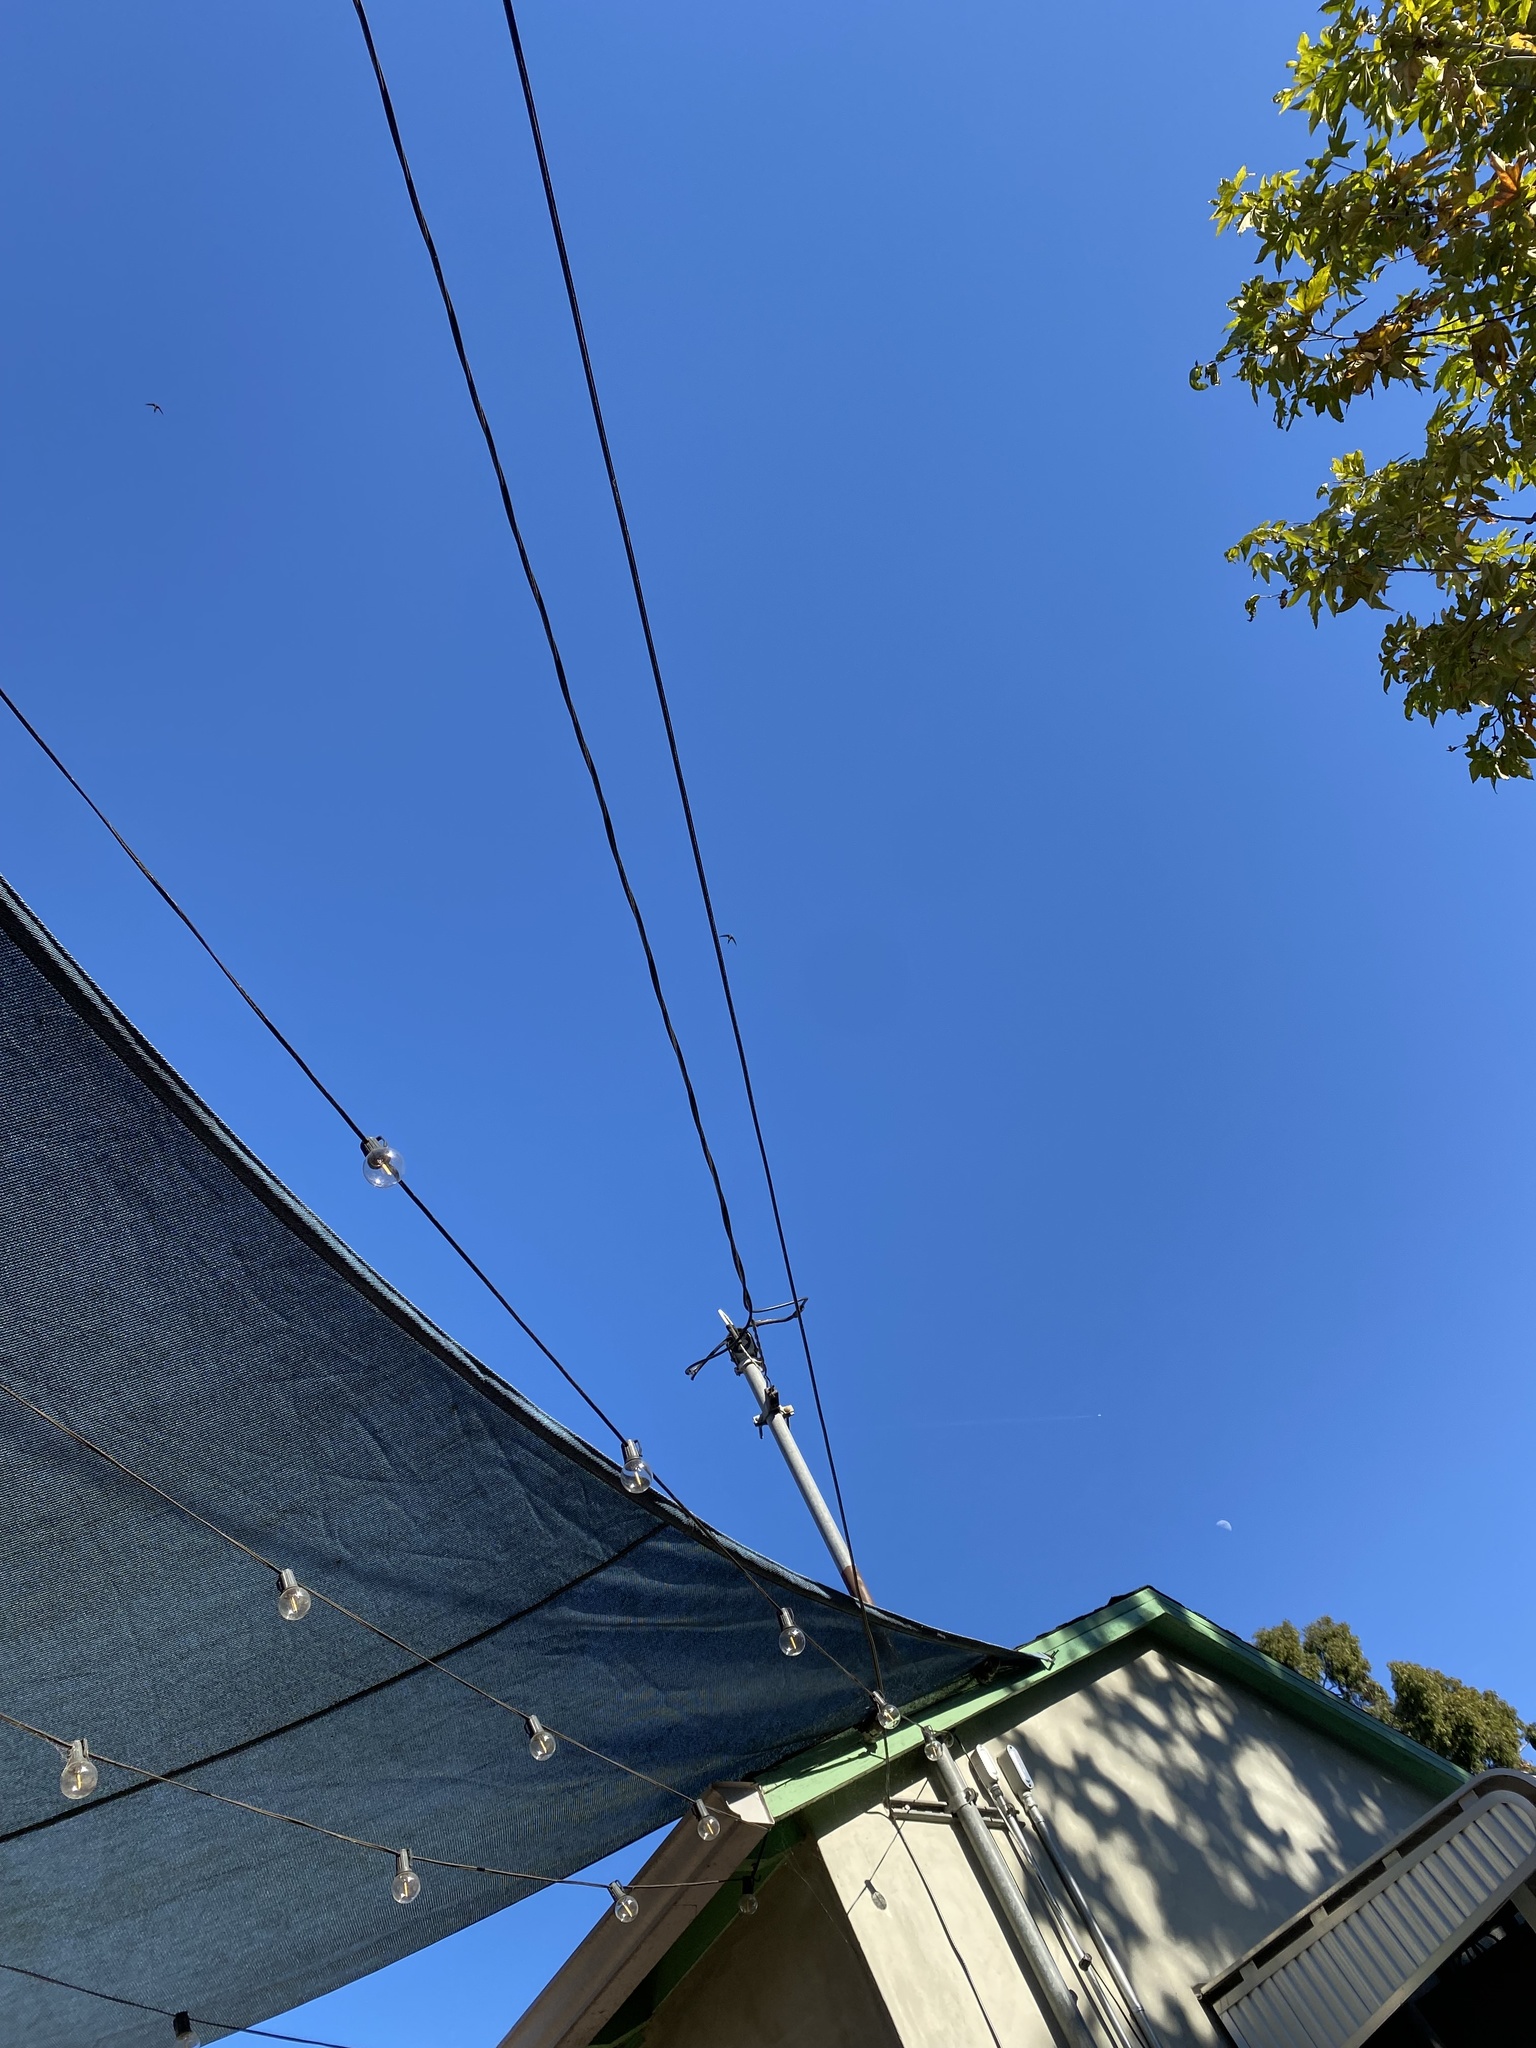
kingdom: Animalia
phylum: Chordata
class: Aves
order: Apodiformes
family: Apodidae
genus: Aeronautes
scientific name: Aeronautes saxatalis
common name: White-throated swift
